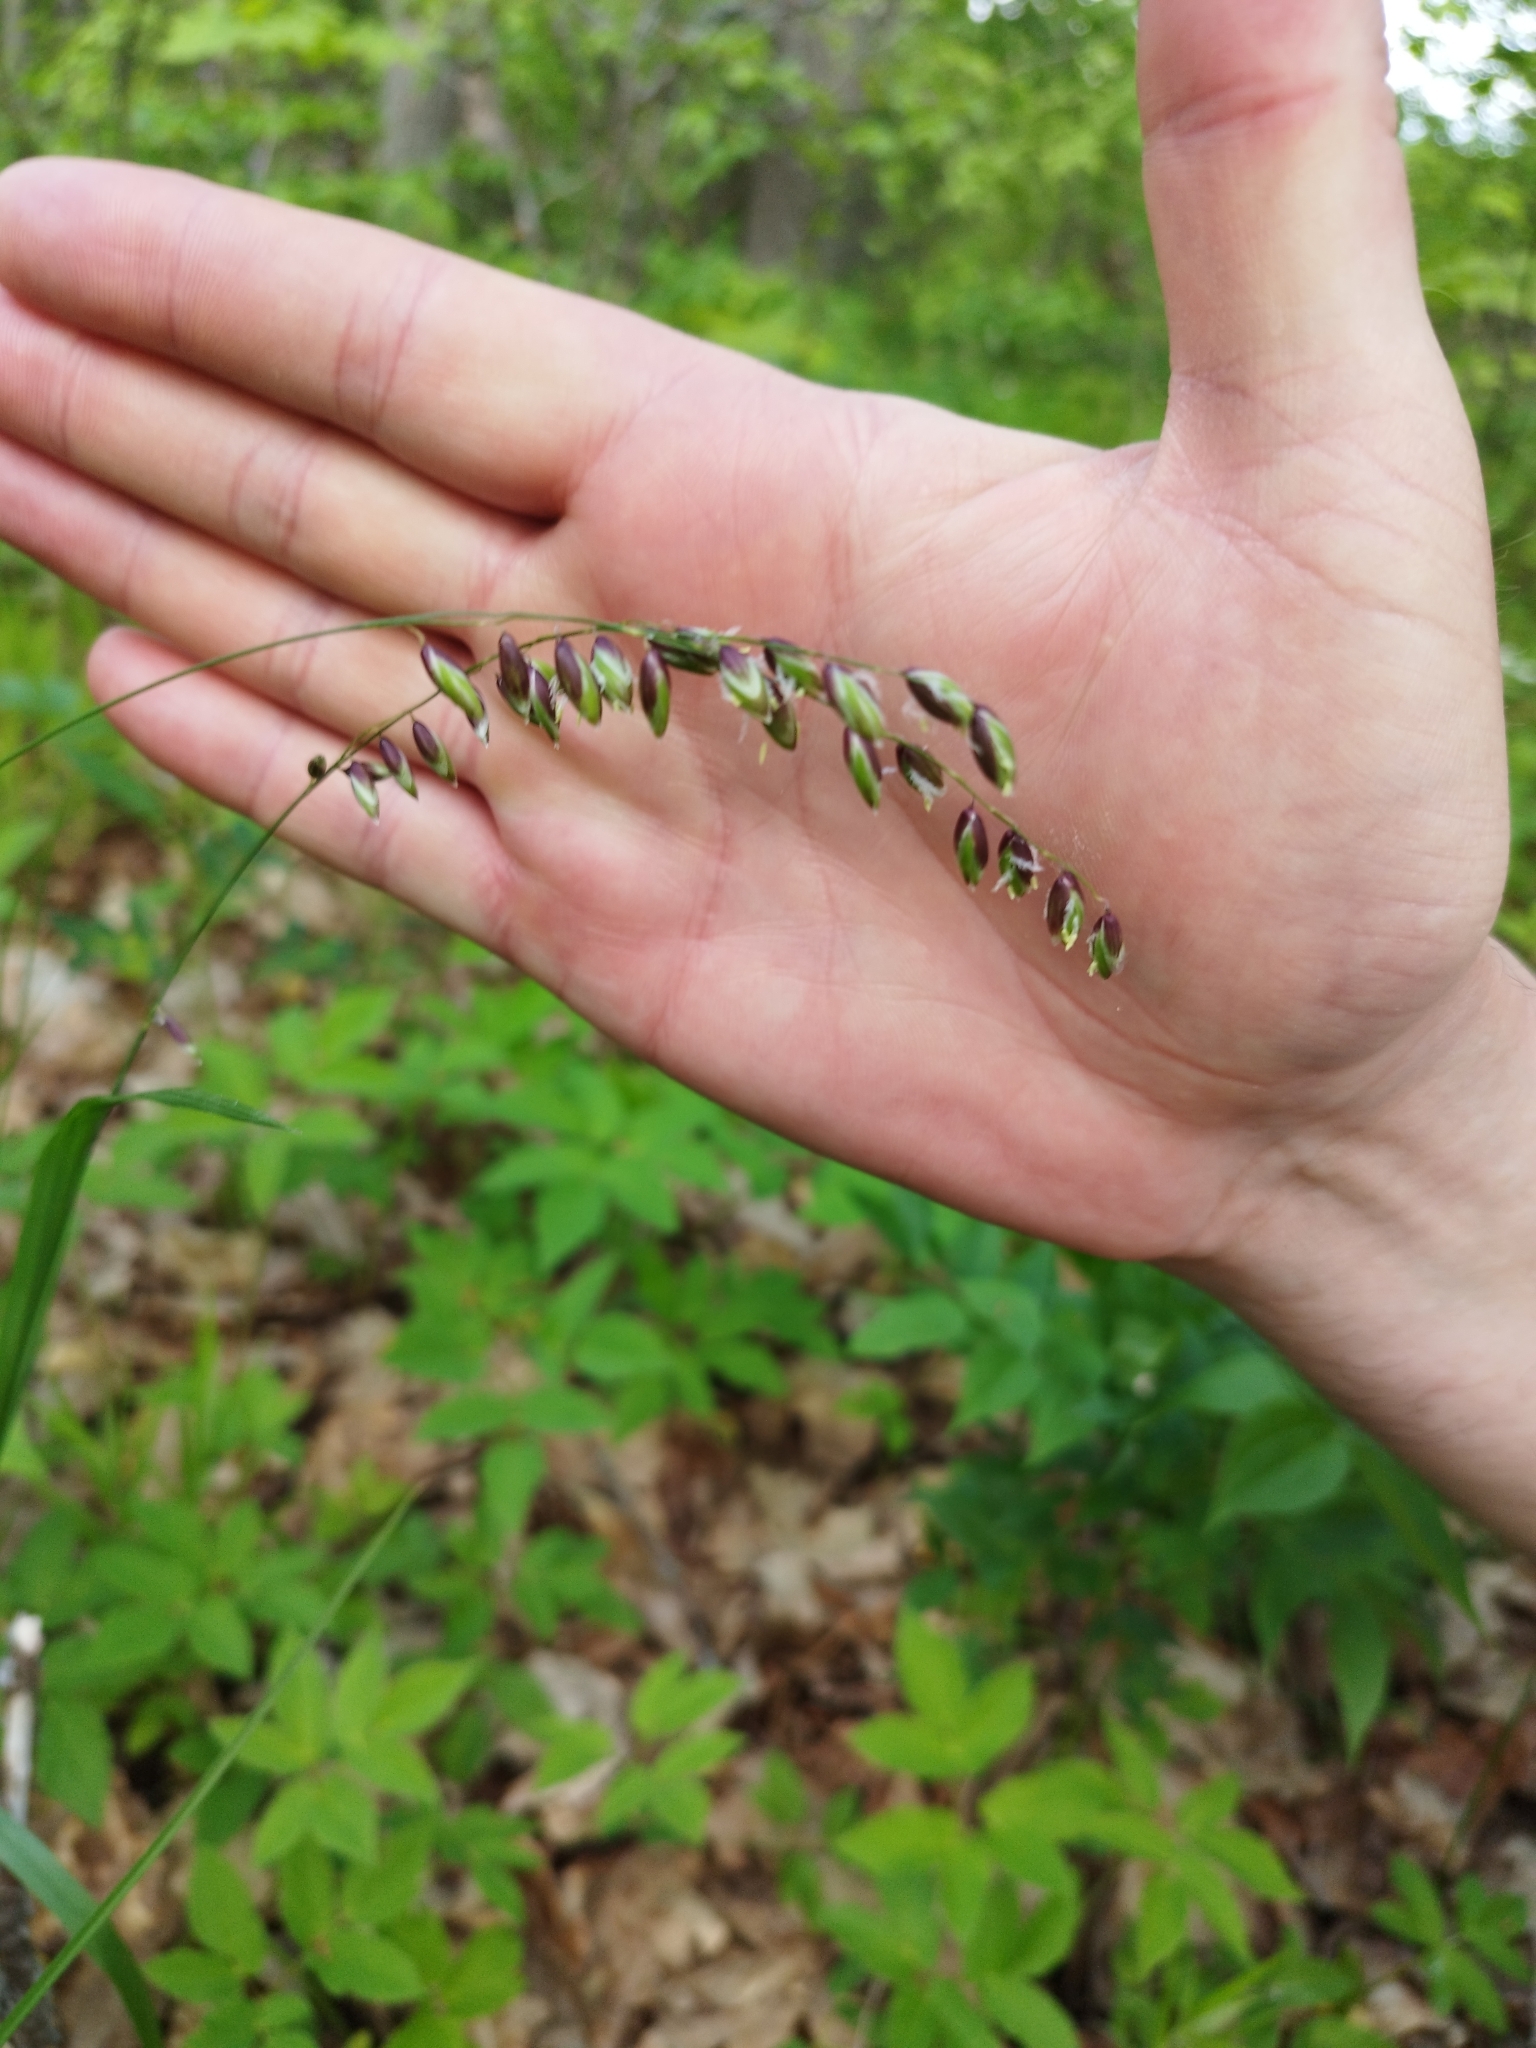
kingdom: Plantae
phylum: Tracheophyta
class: Liliopsida
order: Poales
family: Poaceae
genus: Melica
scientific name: Melica nutans
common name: Mountain melick
